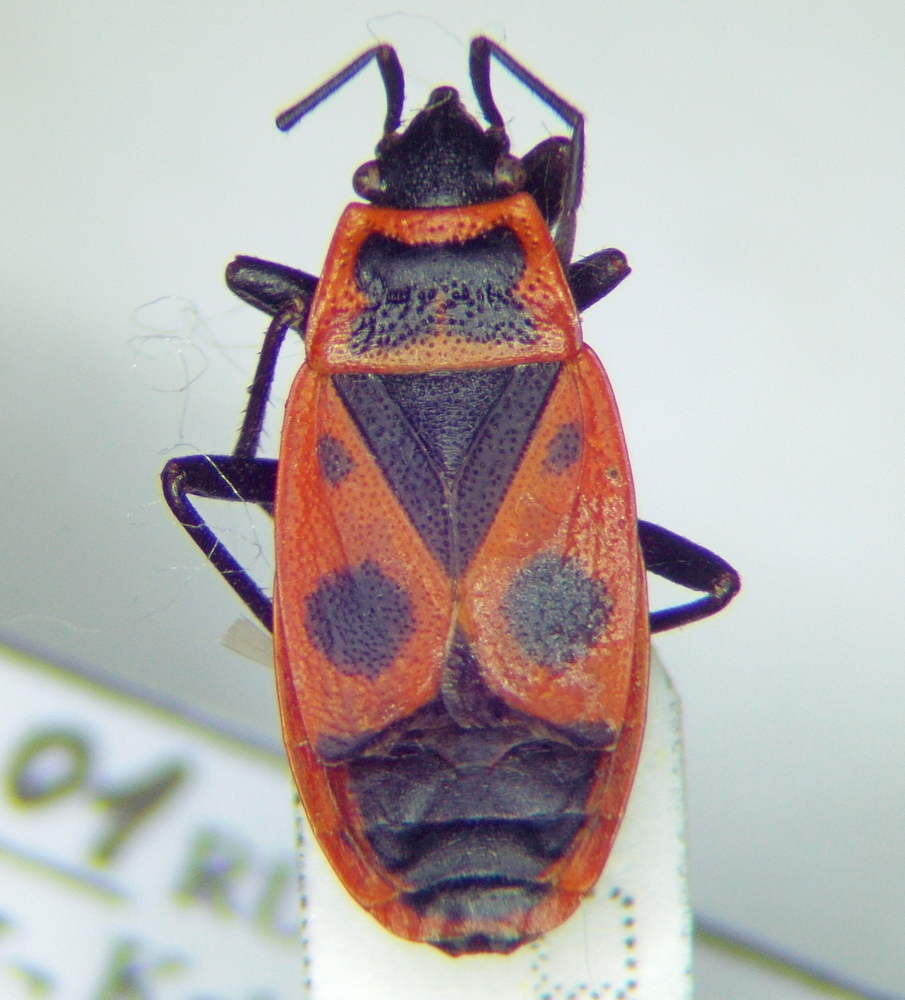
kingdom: Animalia
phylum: Arthropoda
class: Insecta
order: Hemiptera
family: Pyrrhocoridae
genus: Pyrrhocoris
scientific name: Pyrrhocoris apterus
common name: Firebug
